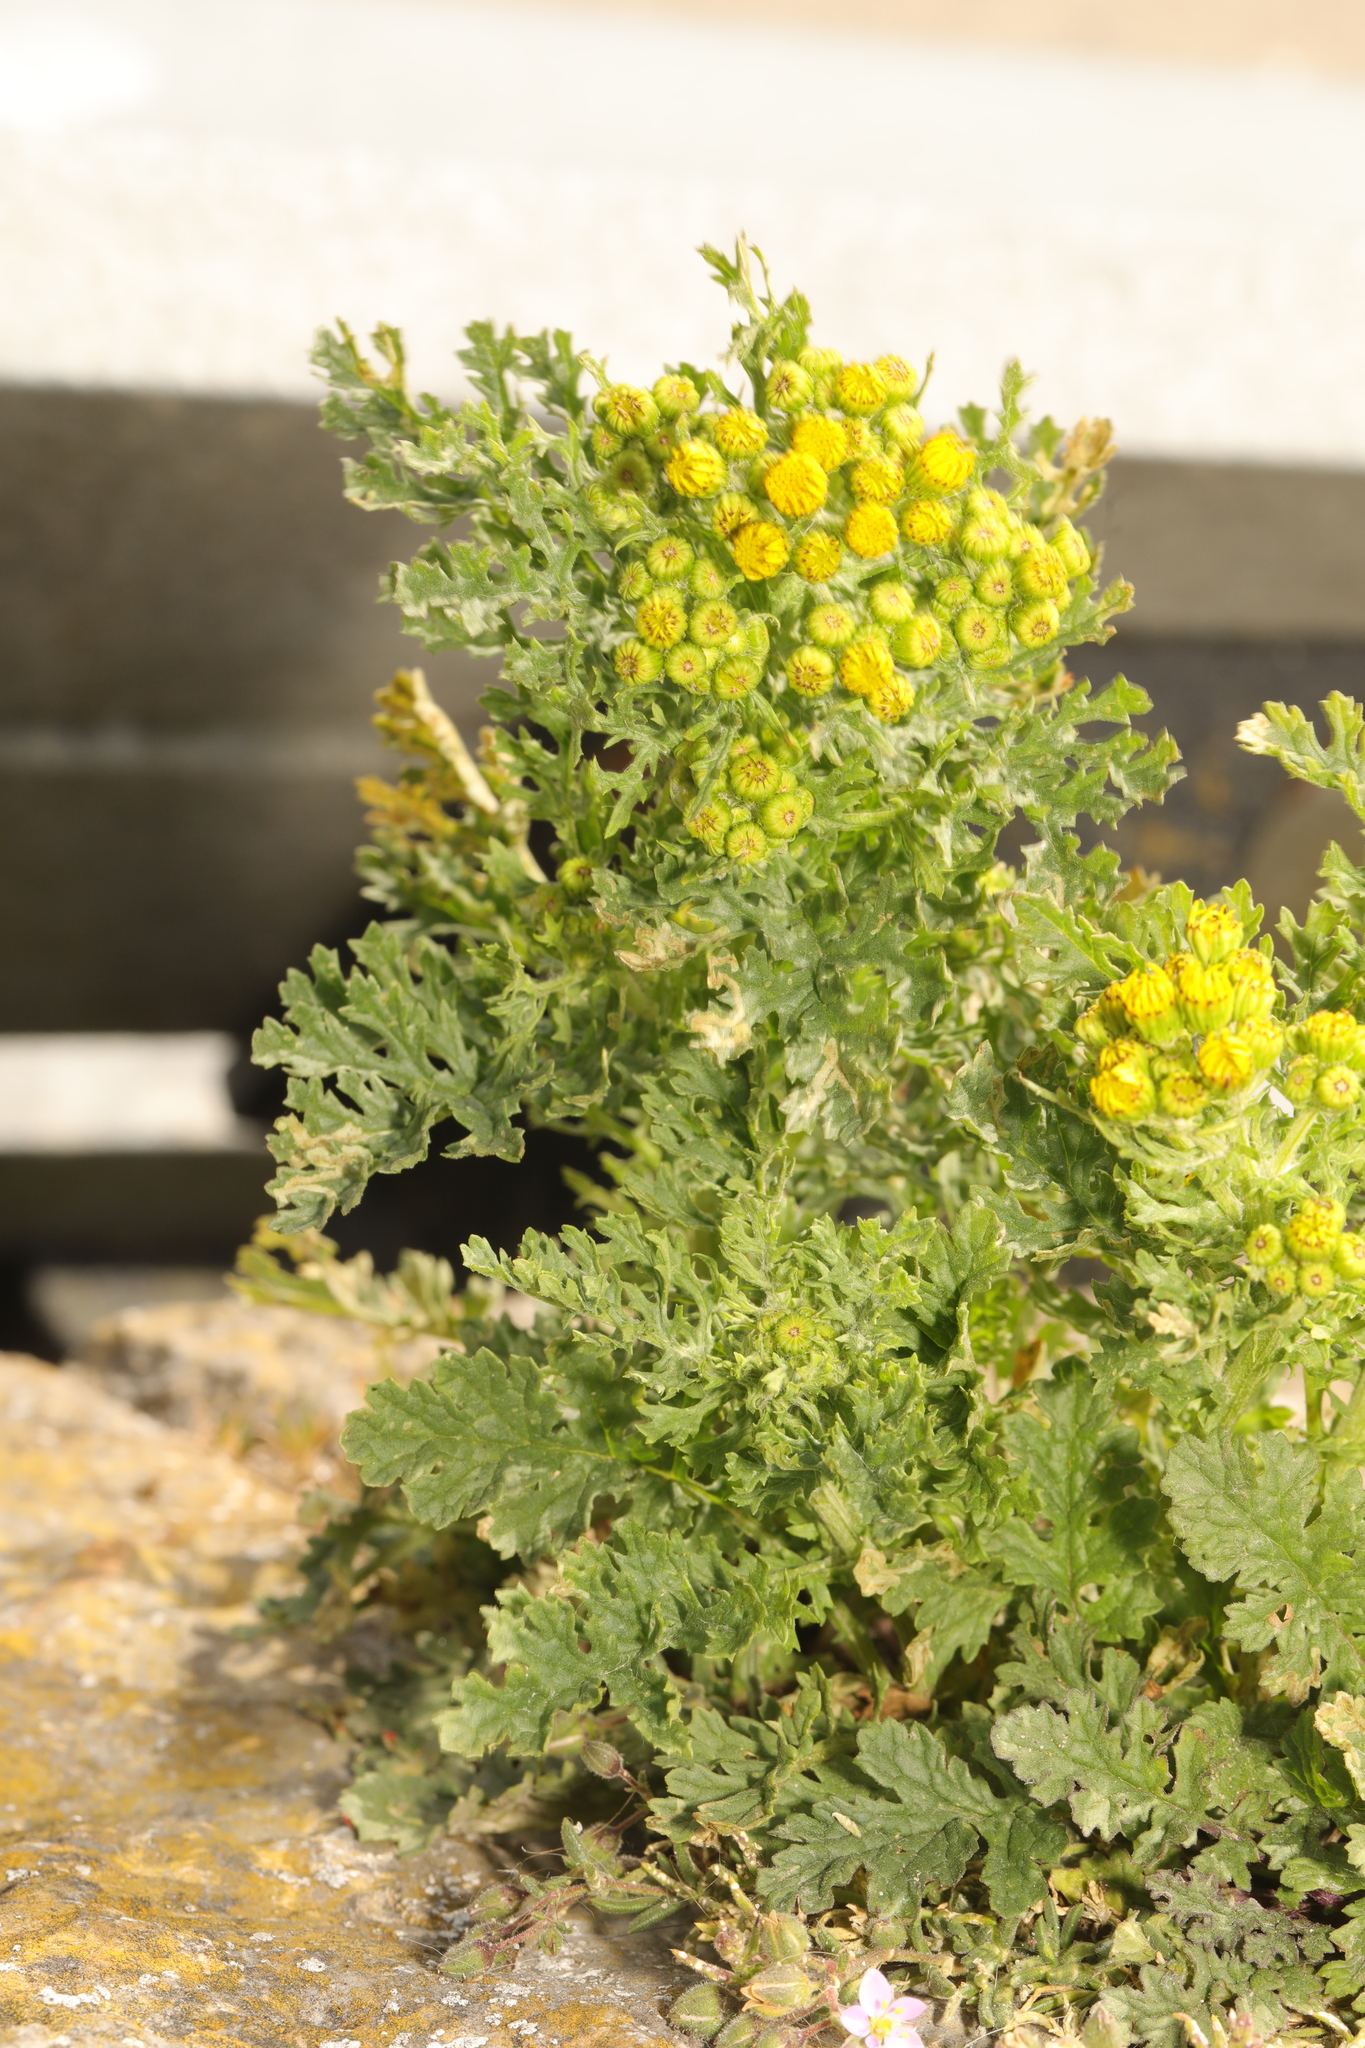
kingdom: Plantae
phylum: Tracheophyta
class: Magnoliopsida
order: Asterales
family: Asteraceae
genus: Jacobaea
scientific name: Jacobaea vulgaris
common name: Stinking willie
